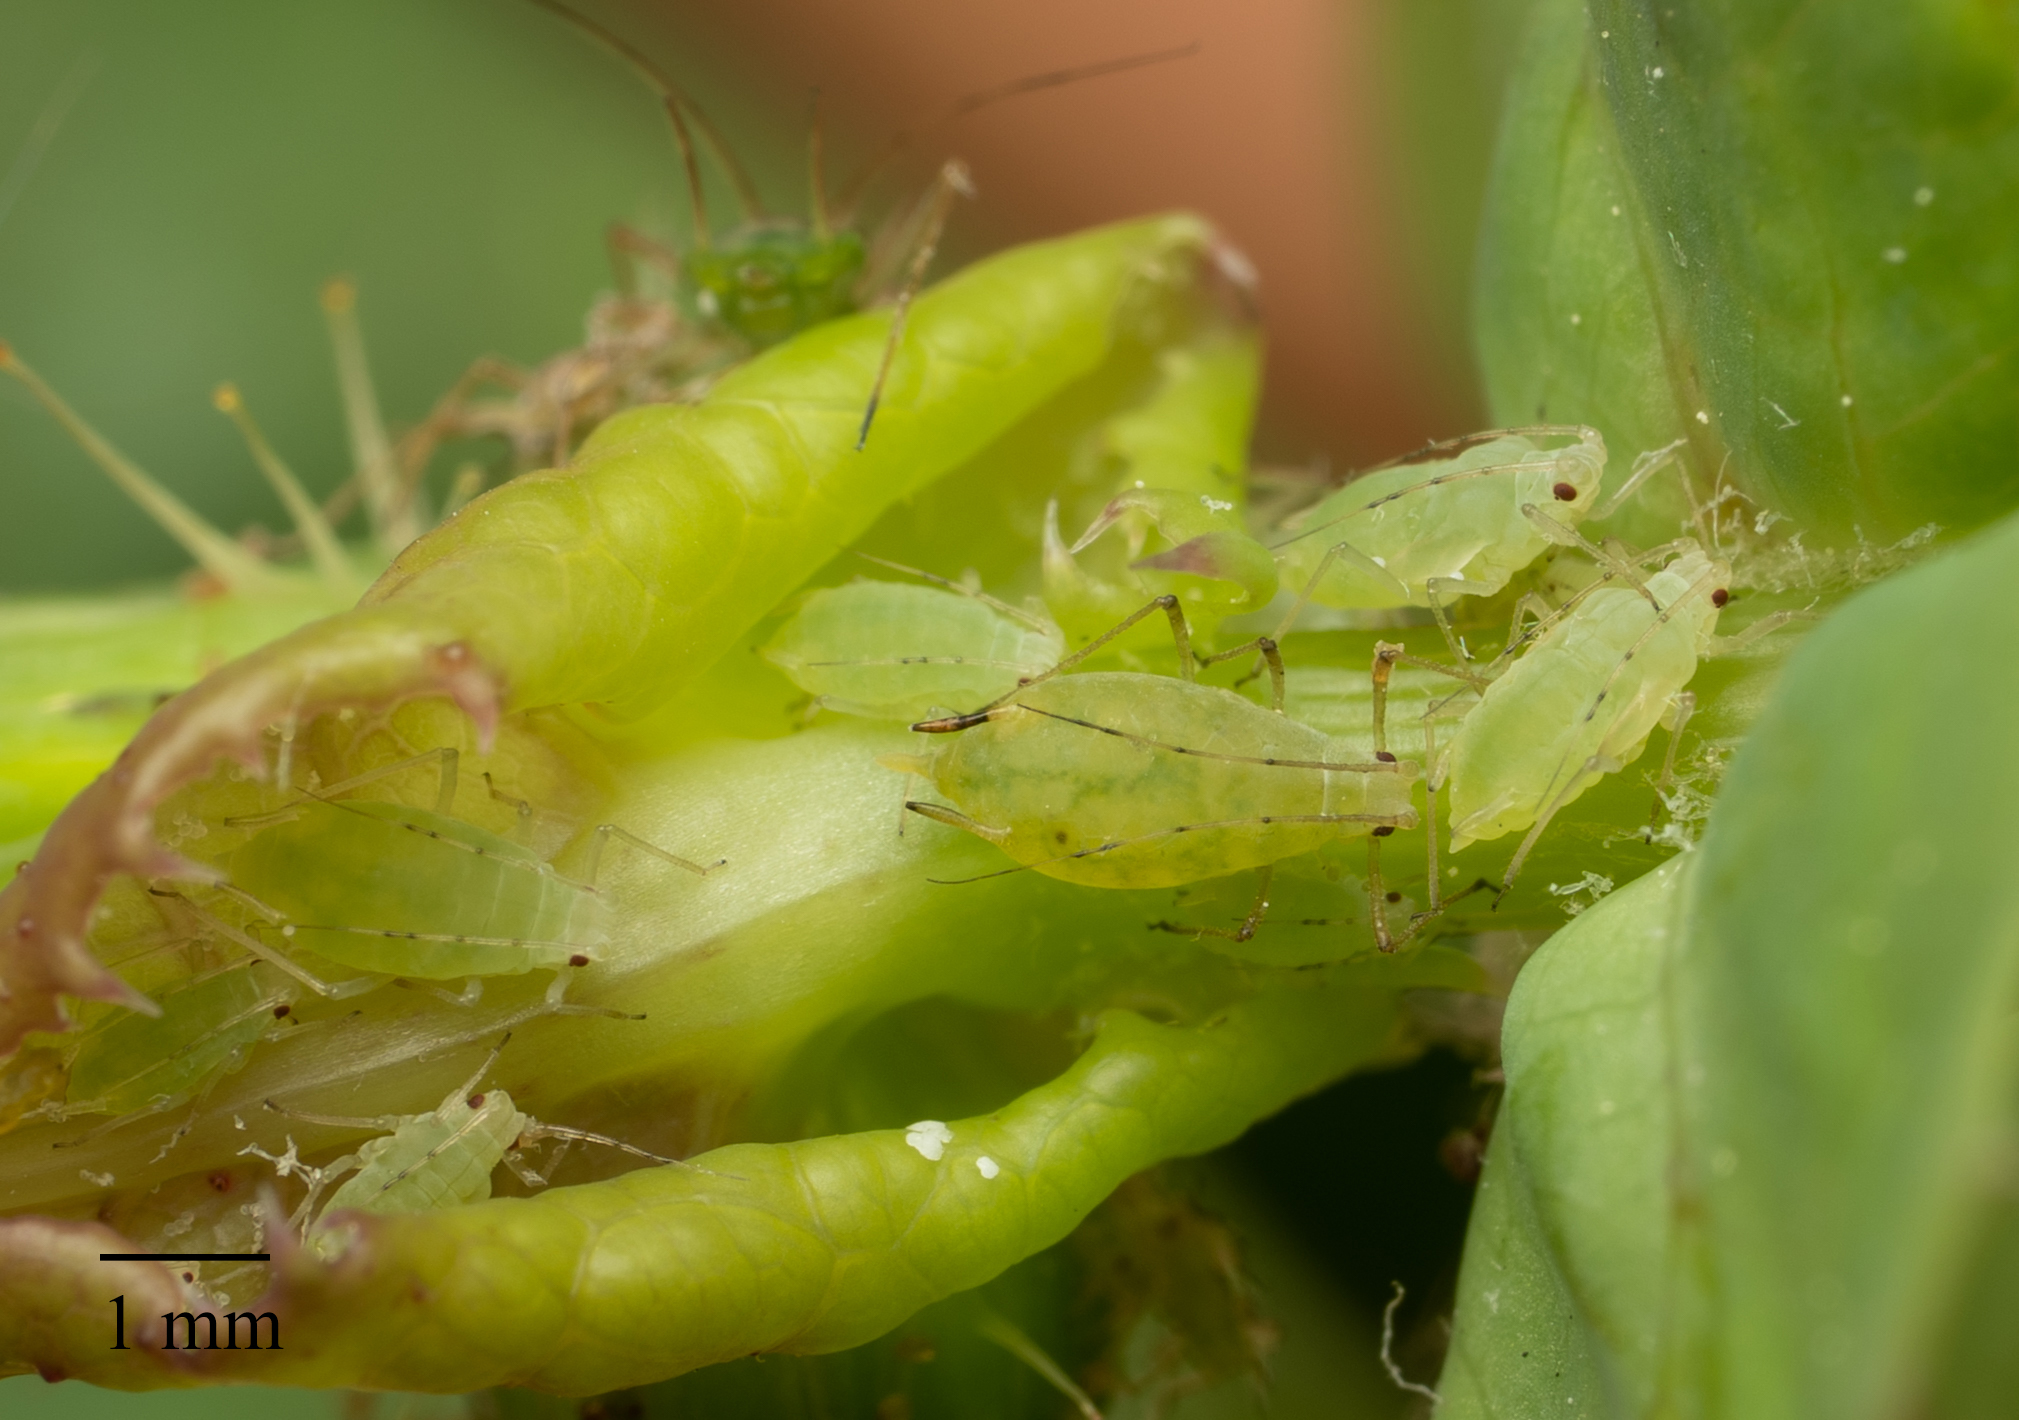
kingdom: Animalia
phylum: Arthropoda
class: Insecta
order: Hemiptera
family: Aphididae
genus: Hyperomyzus
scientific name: Hyperomyzus lactucae
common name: Sow thistle aphid
